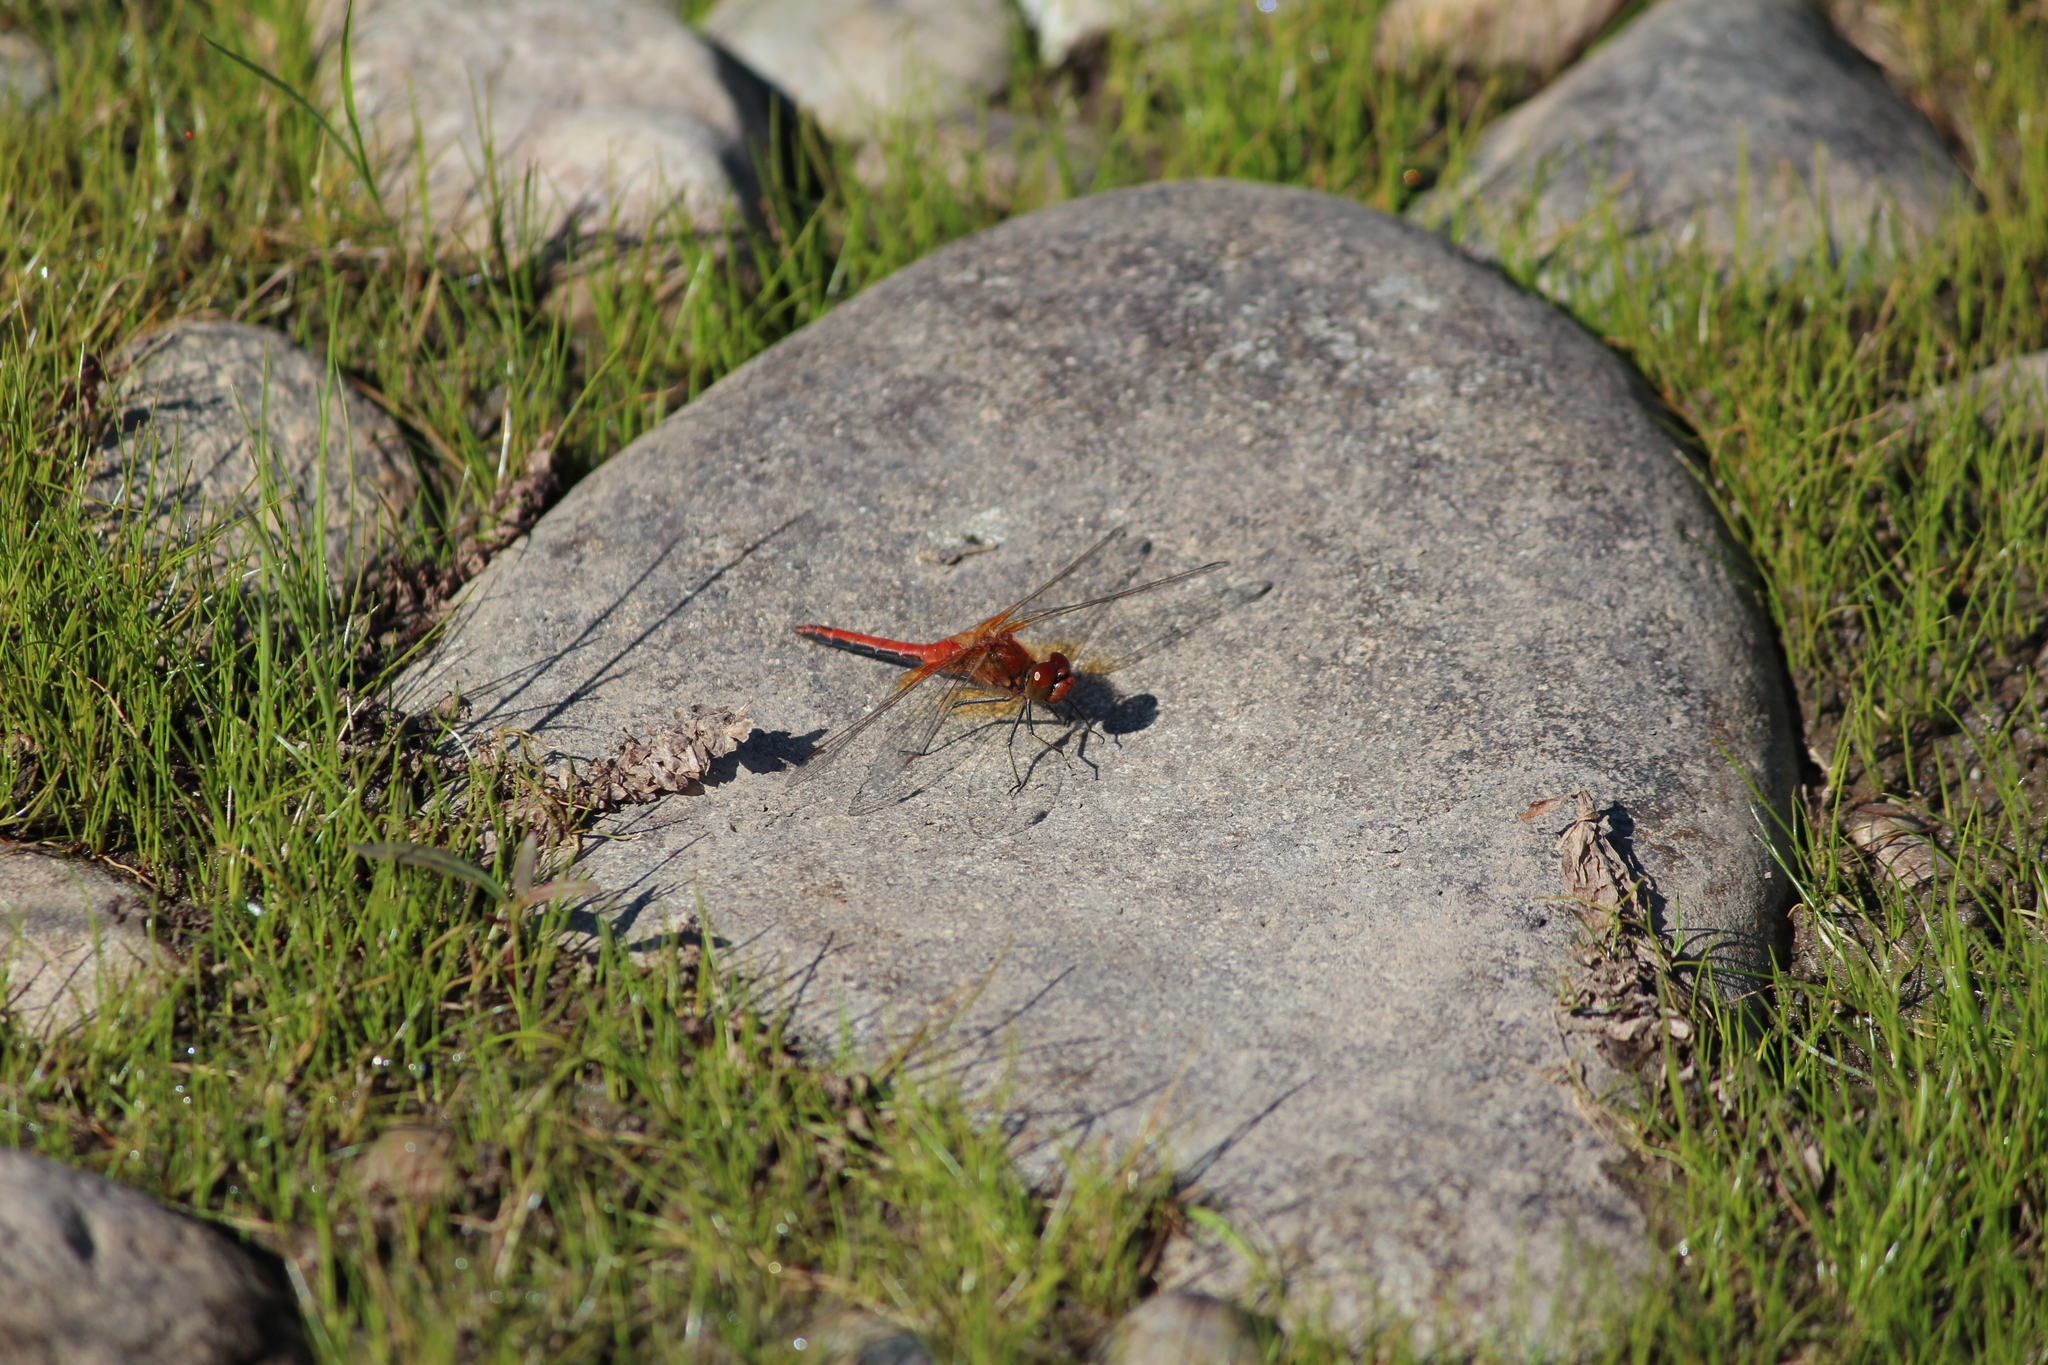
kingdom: Animalia
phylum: Arthropoda
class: Insecta
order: Odonata
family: Libellulidae
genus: Sympetrum
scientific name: Sympetrum flaveolum
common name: Yellow-winged darter
